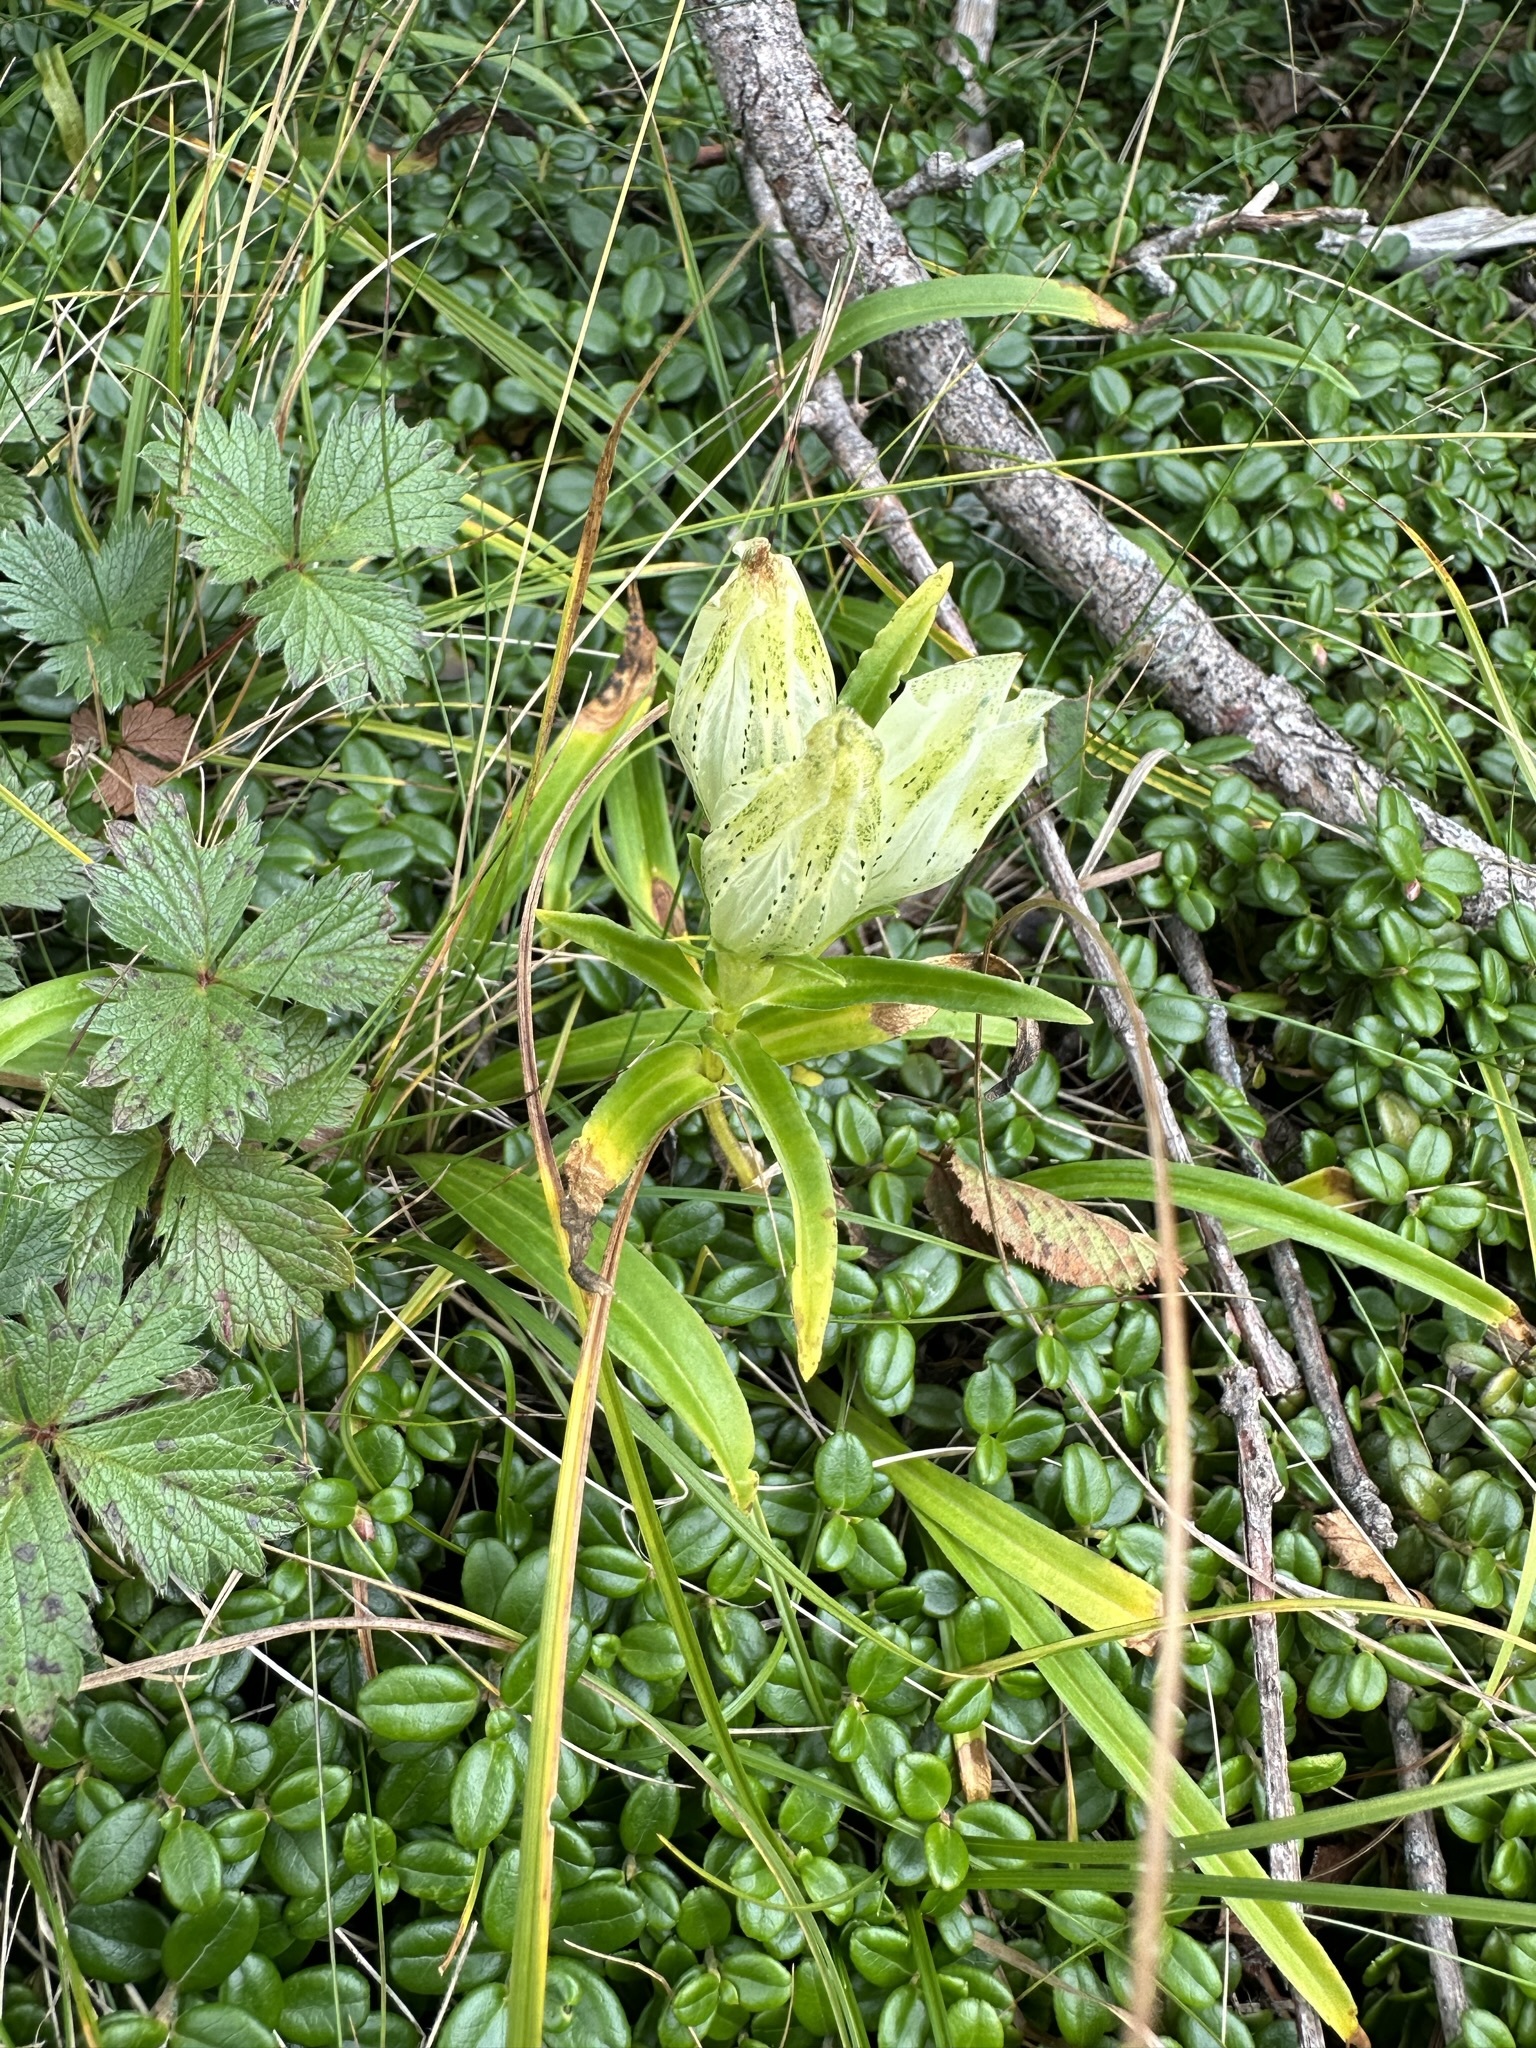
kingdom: Plantae
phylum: Tracheophyta
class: Magnoliopsida
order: Gentianales
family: Gentianaceae
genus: Gentiana
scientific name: Gentiana algida
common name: Arctic gentian
